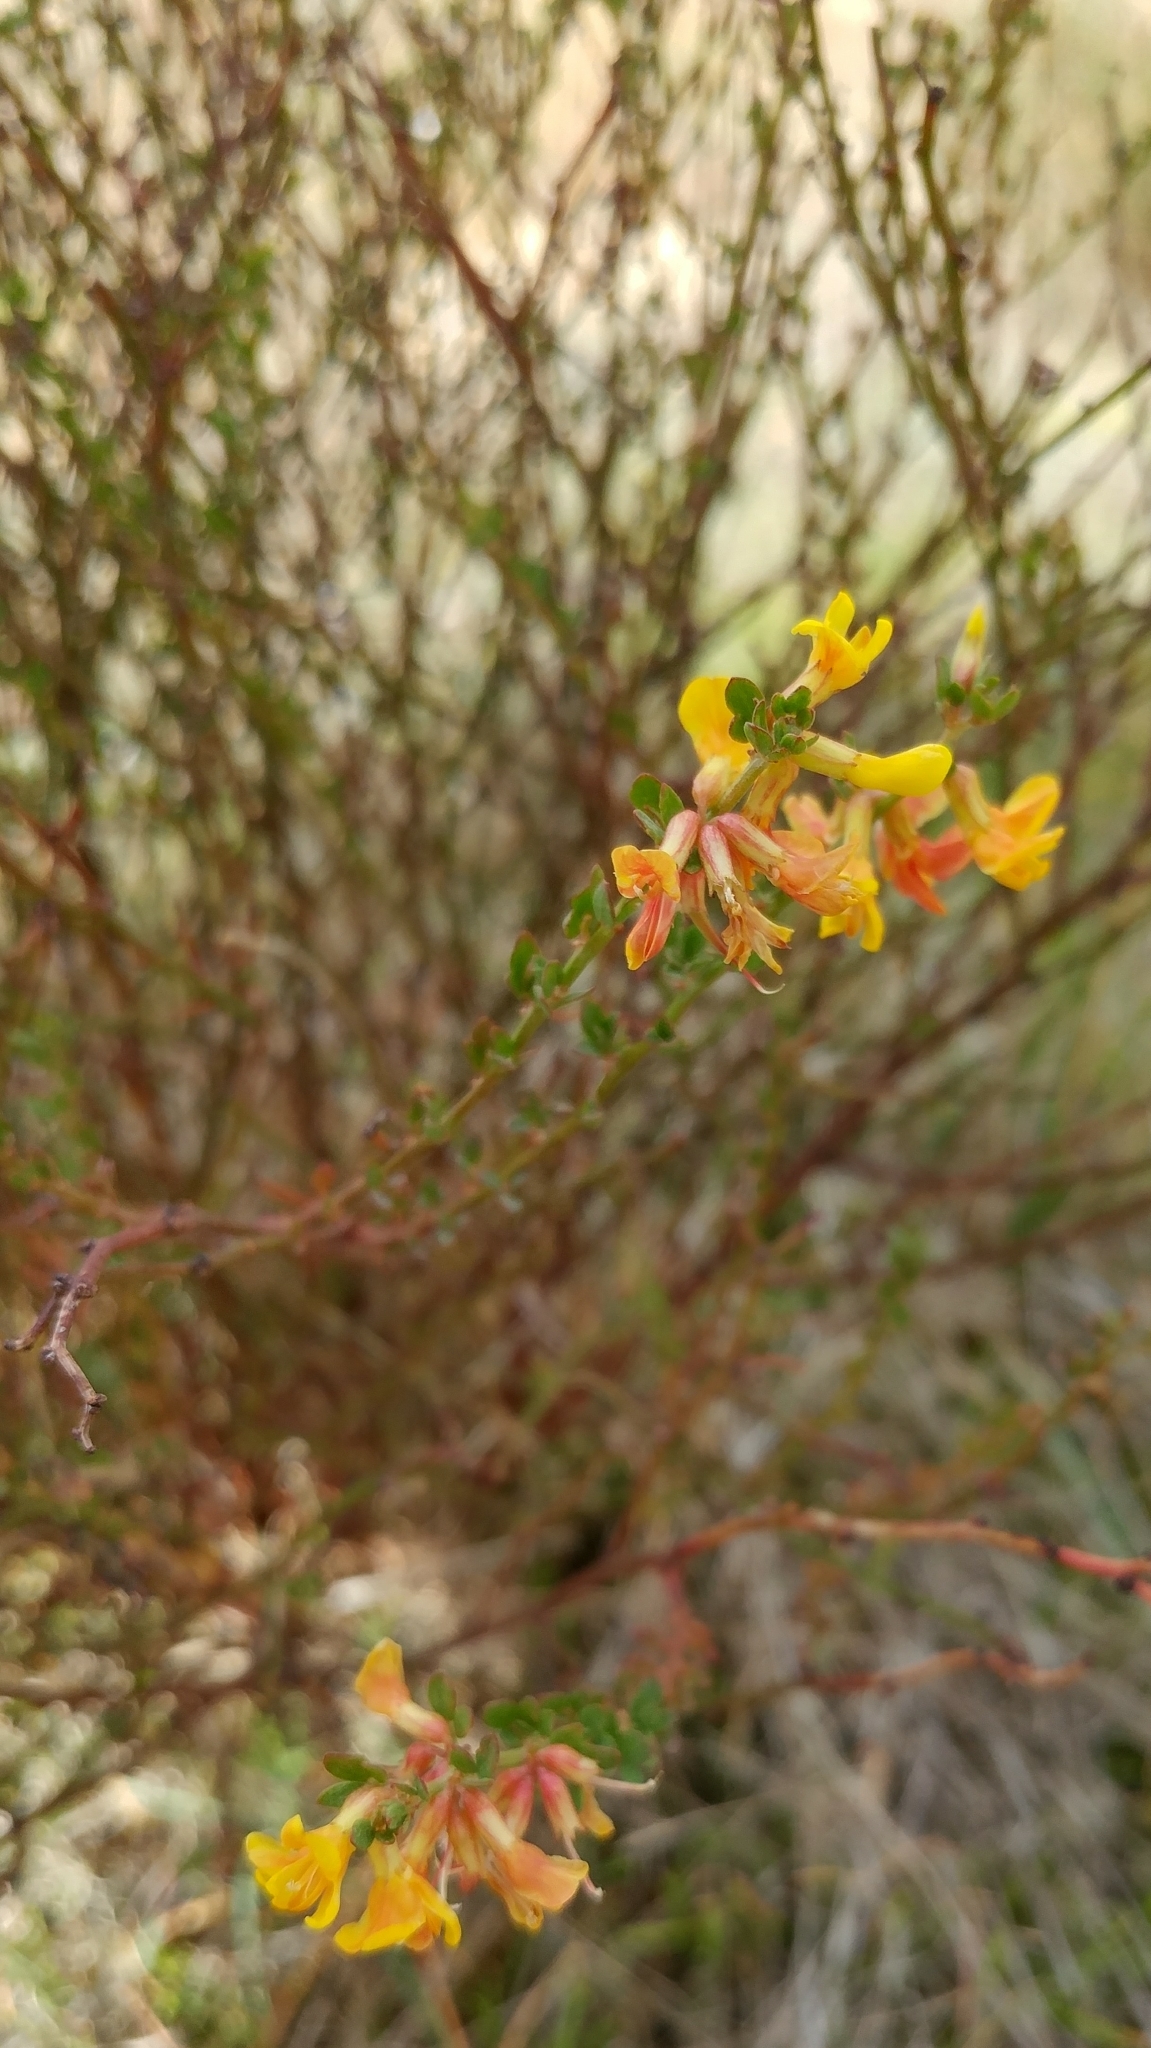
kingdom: Plantae
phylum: Tracheophyta
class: Magnoliopsida
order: Fabales
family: Fabaceae
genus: Acmispon
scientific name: Acmispon glaber
